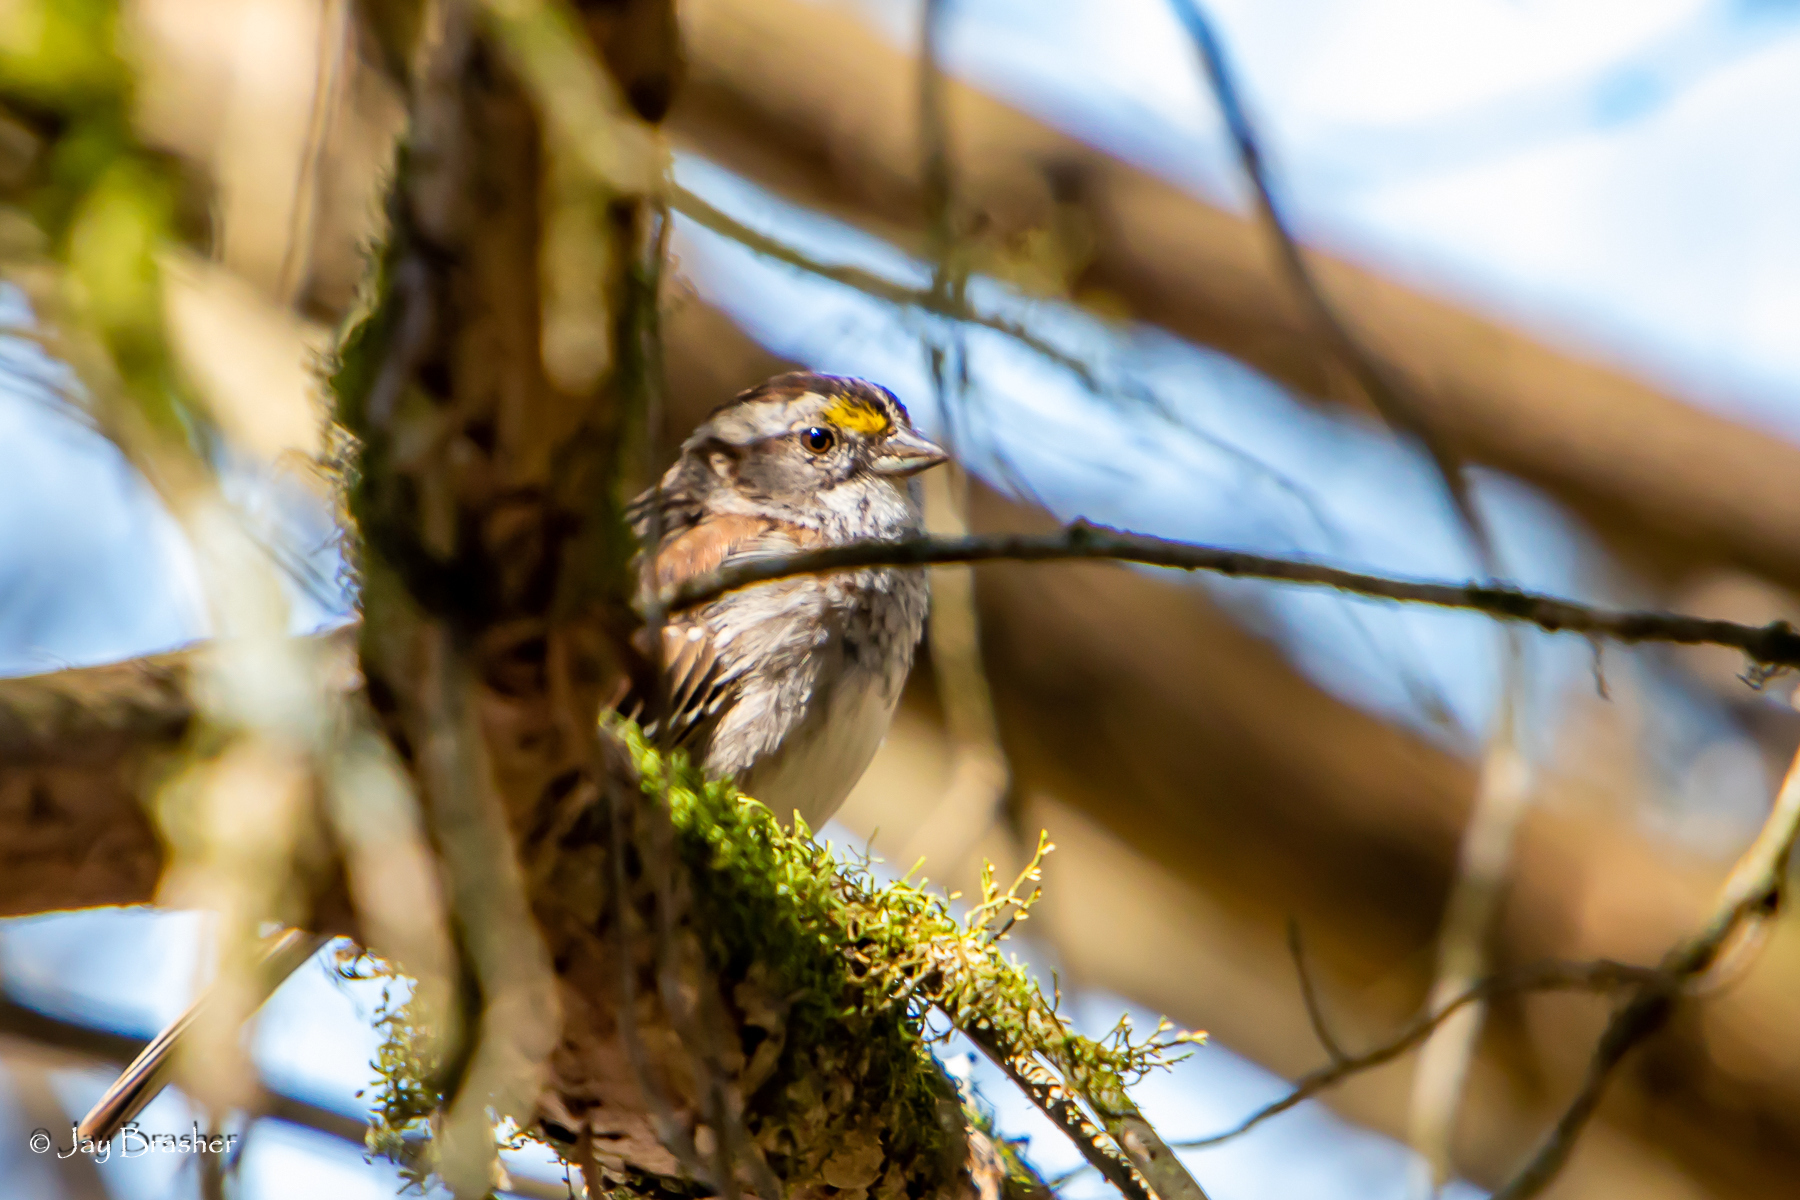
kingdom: Animalia
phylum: Chordata
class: Aves
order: Passeriformes
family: Passerellidae
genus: Zonotrichia
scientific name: Zonotrichia albicollis
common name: White-throated sparrow
